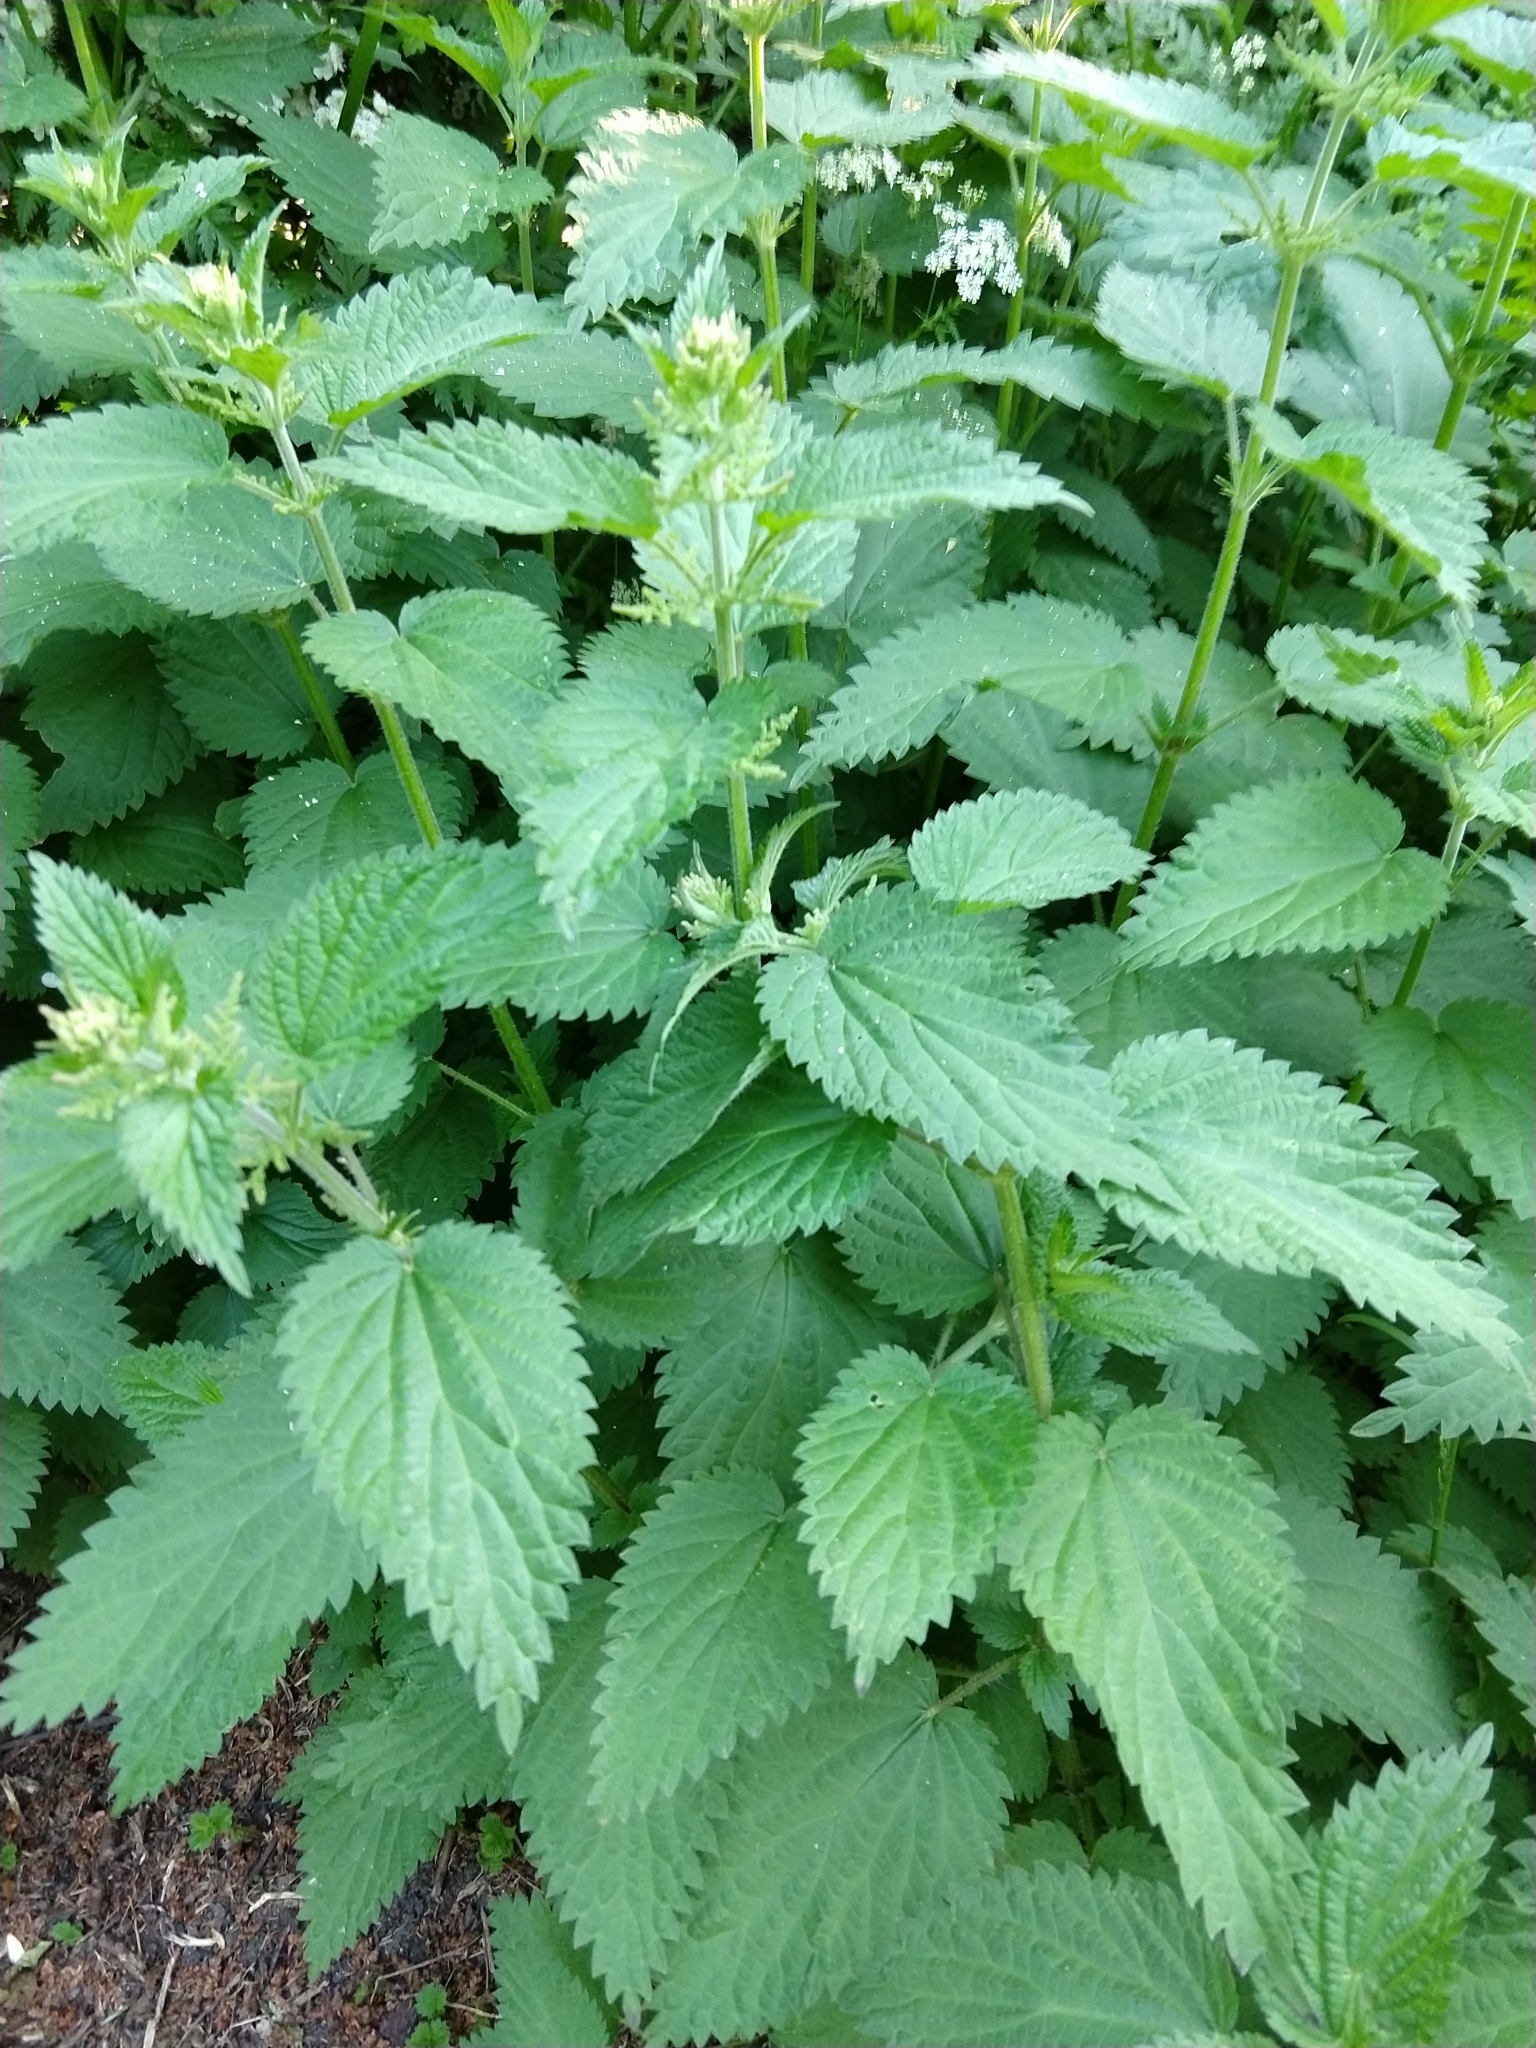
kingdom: Plantae
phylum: Tracheophyta
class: Magnoliopsida
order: Rosales
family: Urticaceae
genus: Urtica
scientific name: Urtica dioica
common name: Common nettle
